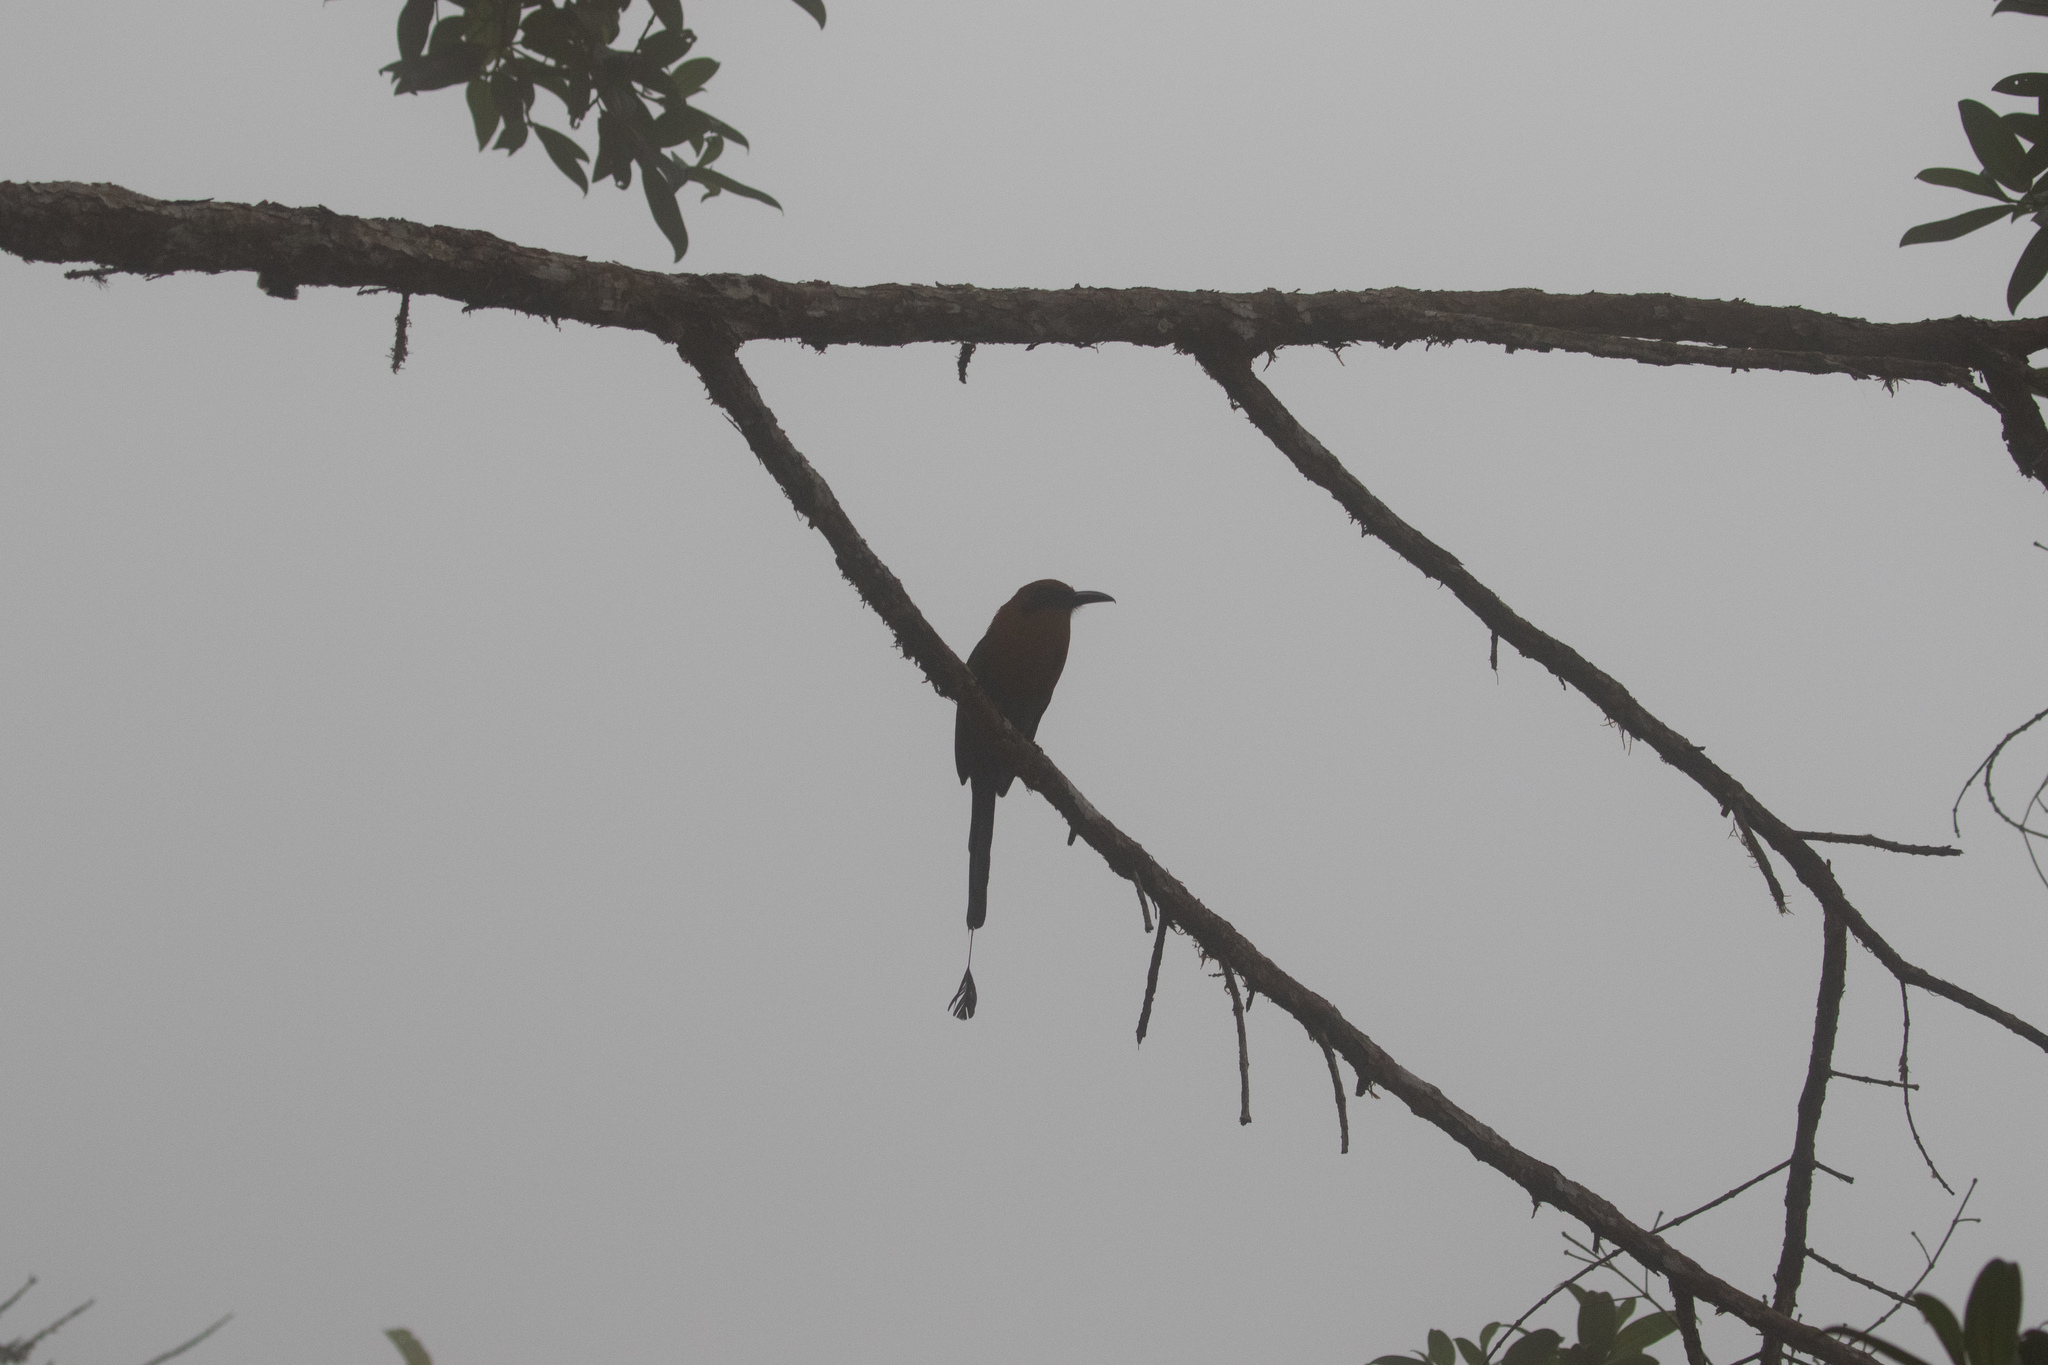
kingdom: Animalia
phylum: Chordata
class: Aves
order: Coraciiformes
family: Momotidae
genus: Electron
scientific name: Electron platyrhynchum
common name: Broad-billed motmot
